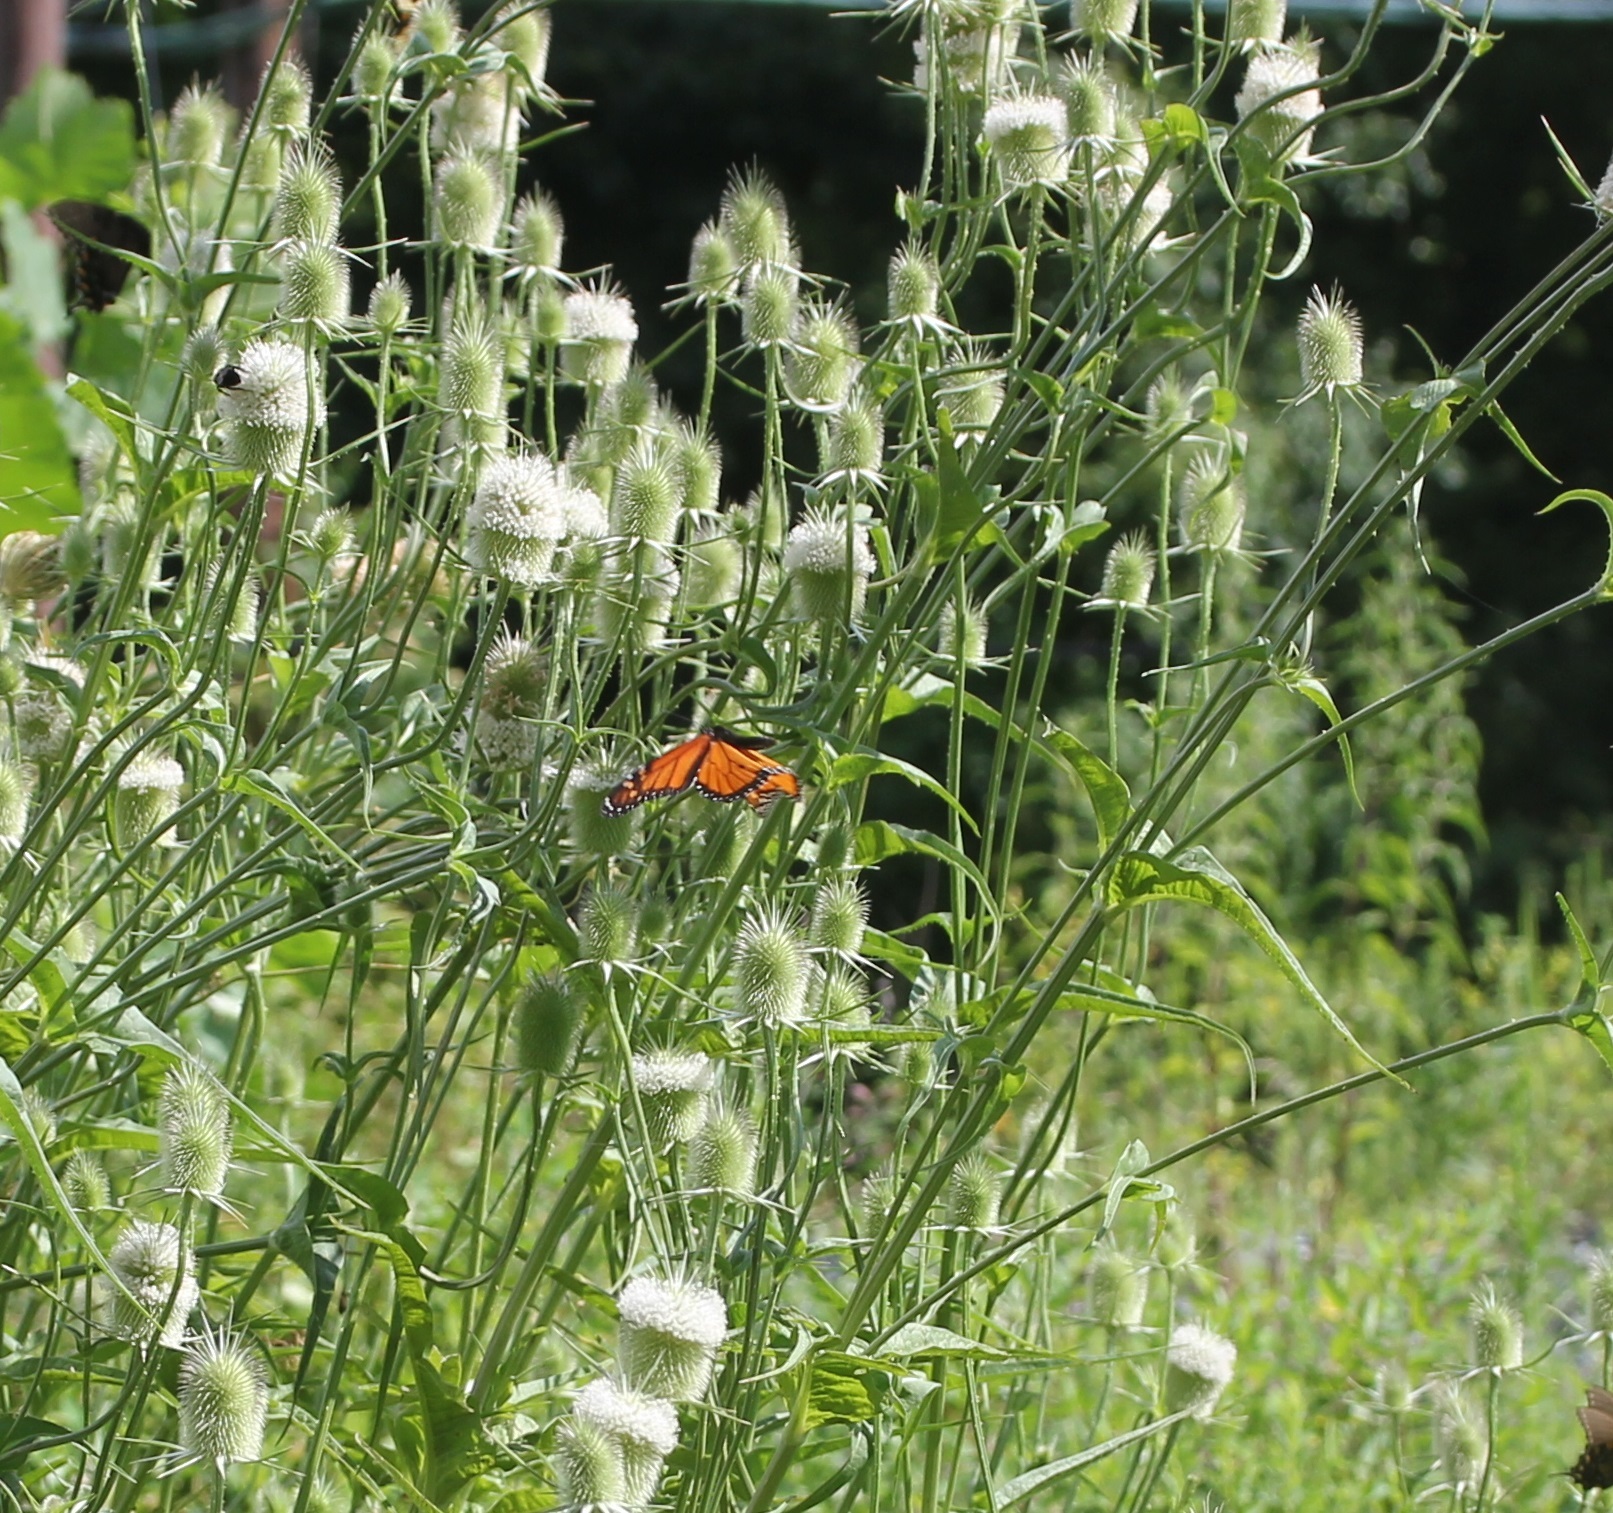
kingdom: Animalia
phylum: Arthropoda
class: Insecta
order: Lepidoptera
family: Nymphalidae
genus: Danaus
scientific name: Danaus plexippus
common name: Monarch
